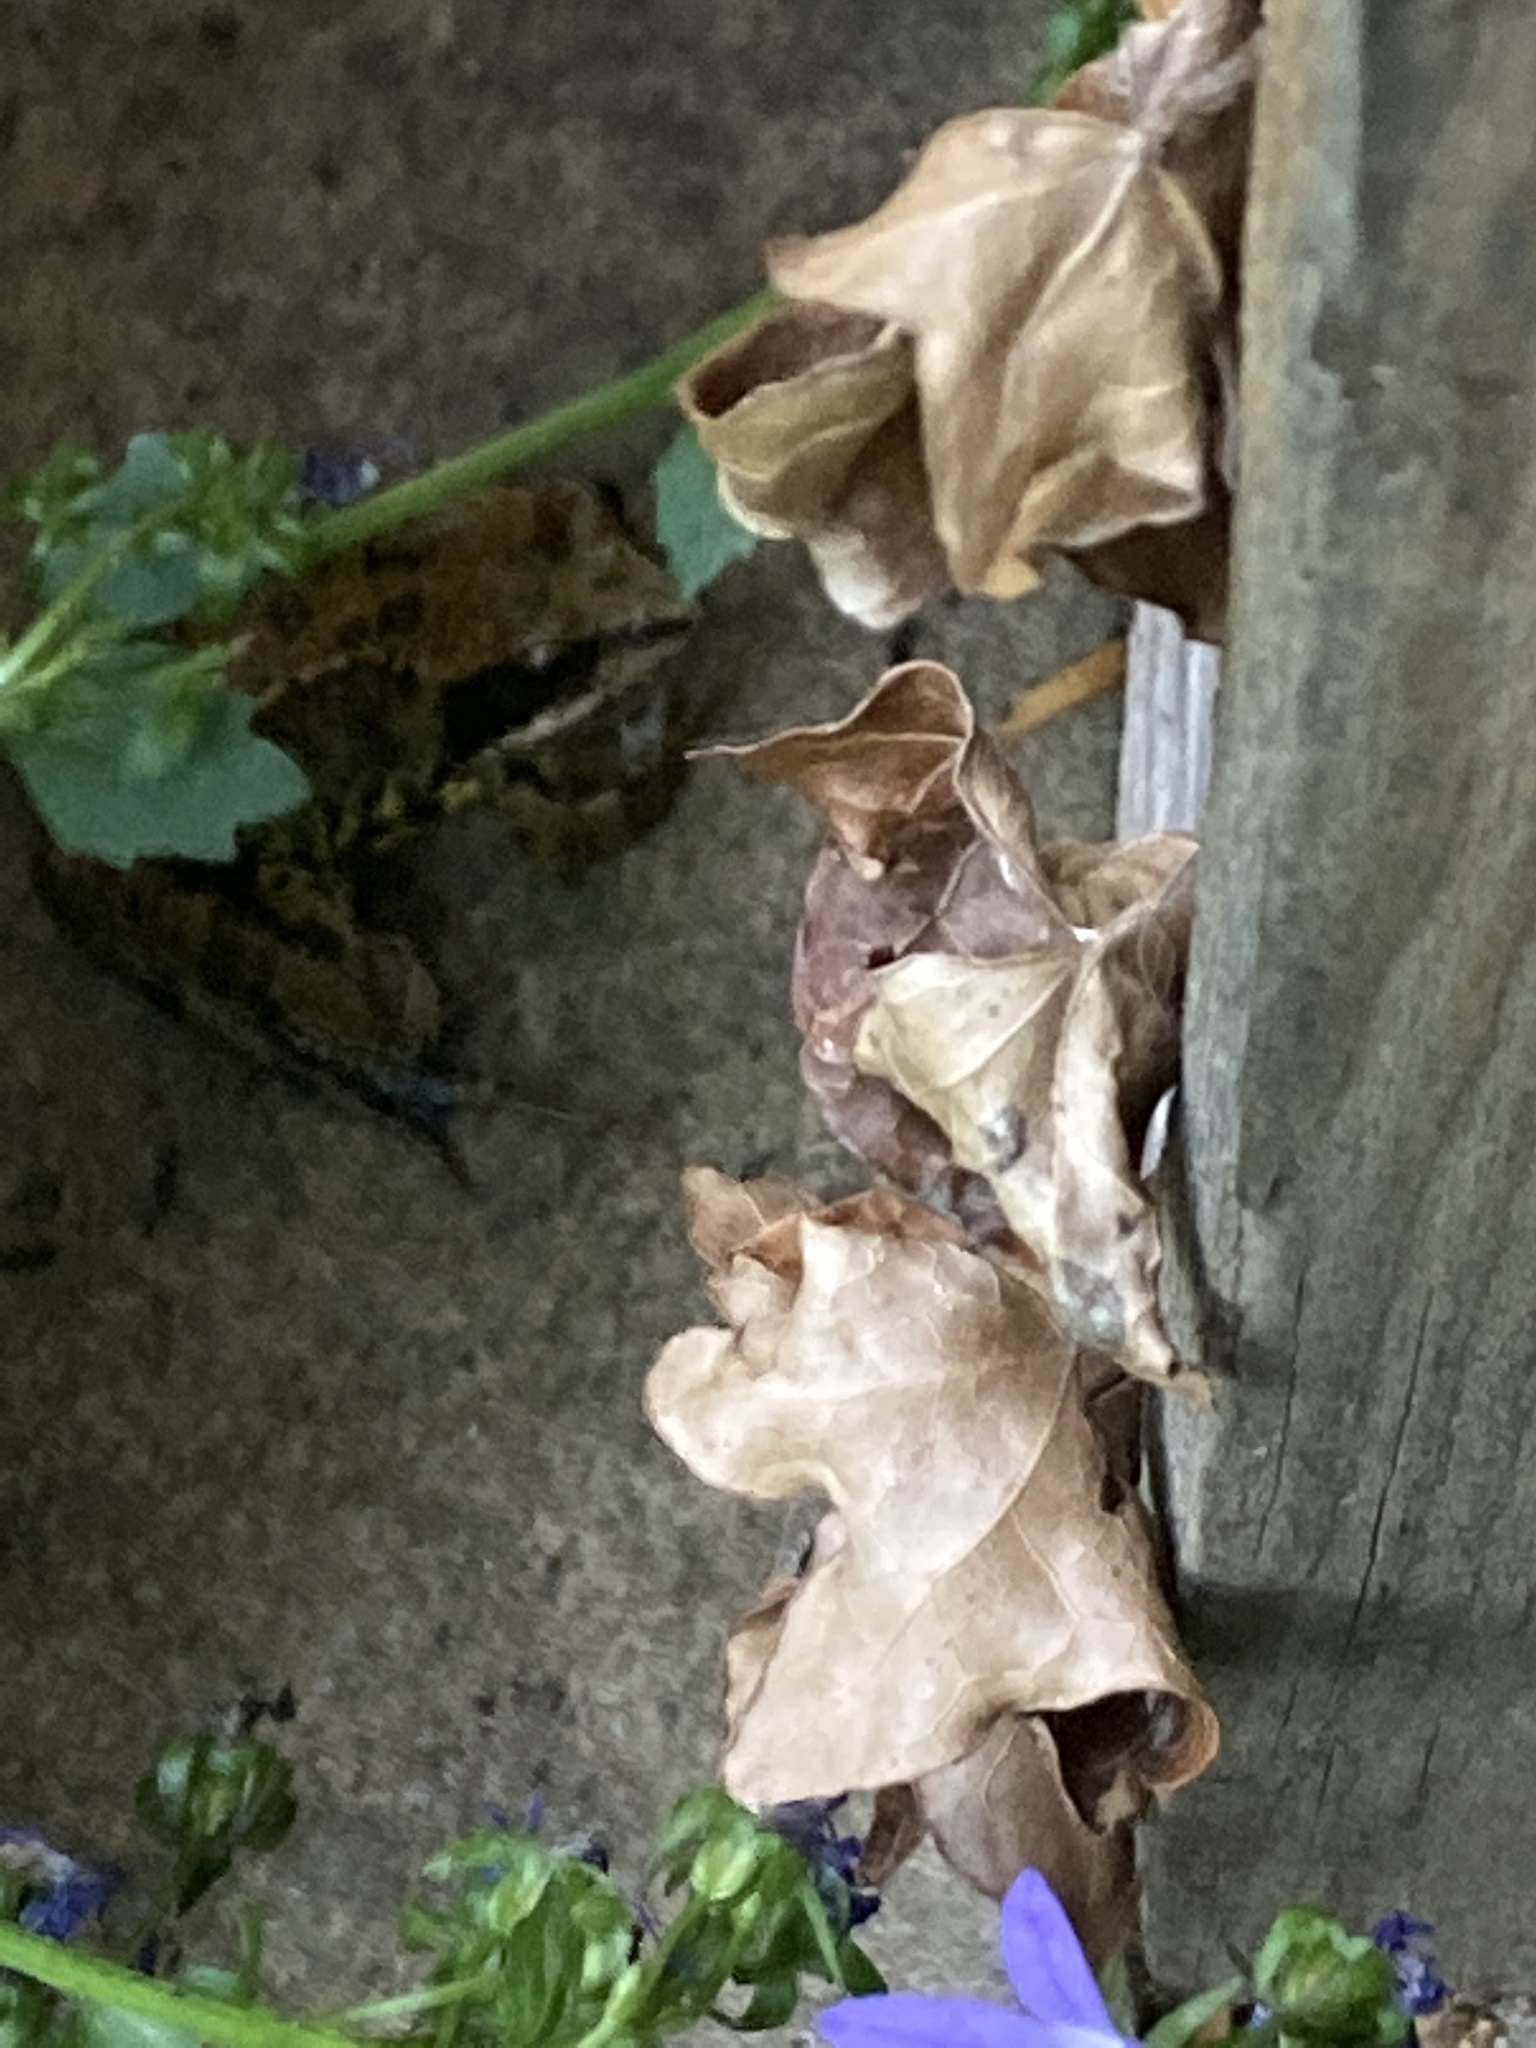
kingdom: Animalia
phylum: Chordata
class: Amphibia
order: Anura
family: Ranidae
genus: Rana
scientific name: Rana temporaria
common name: Common frog
